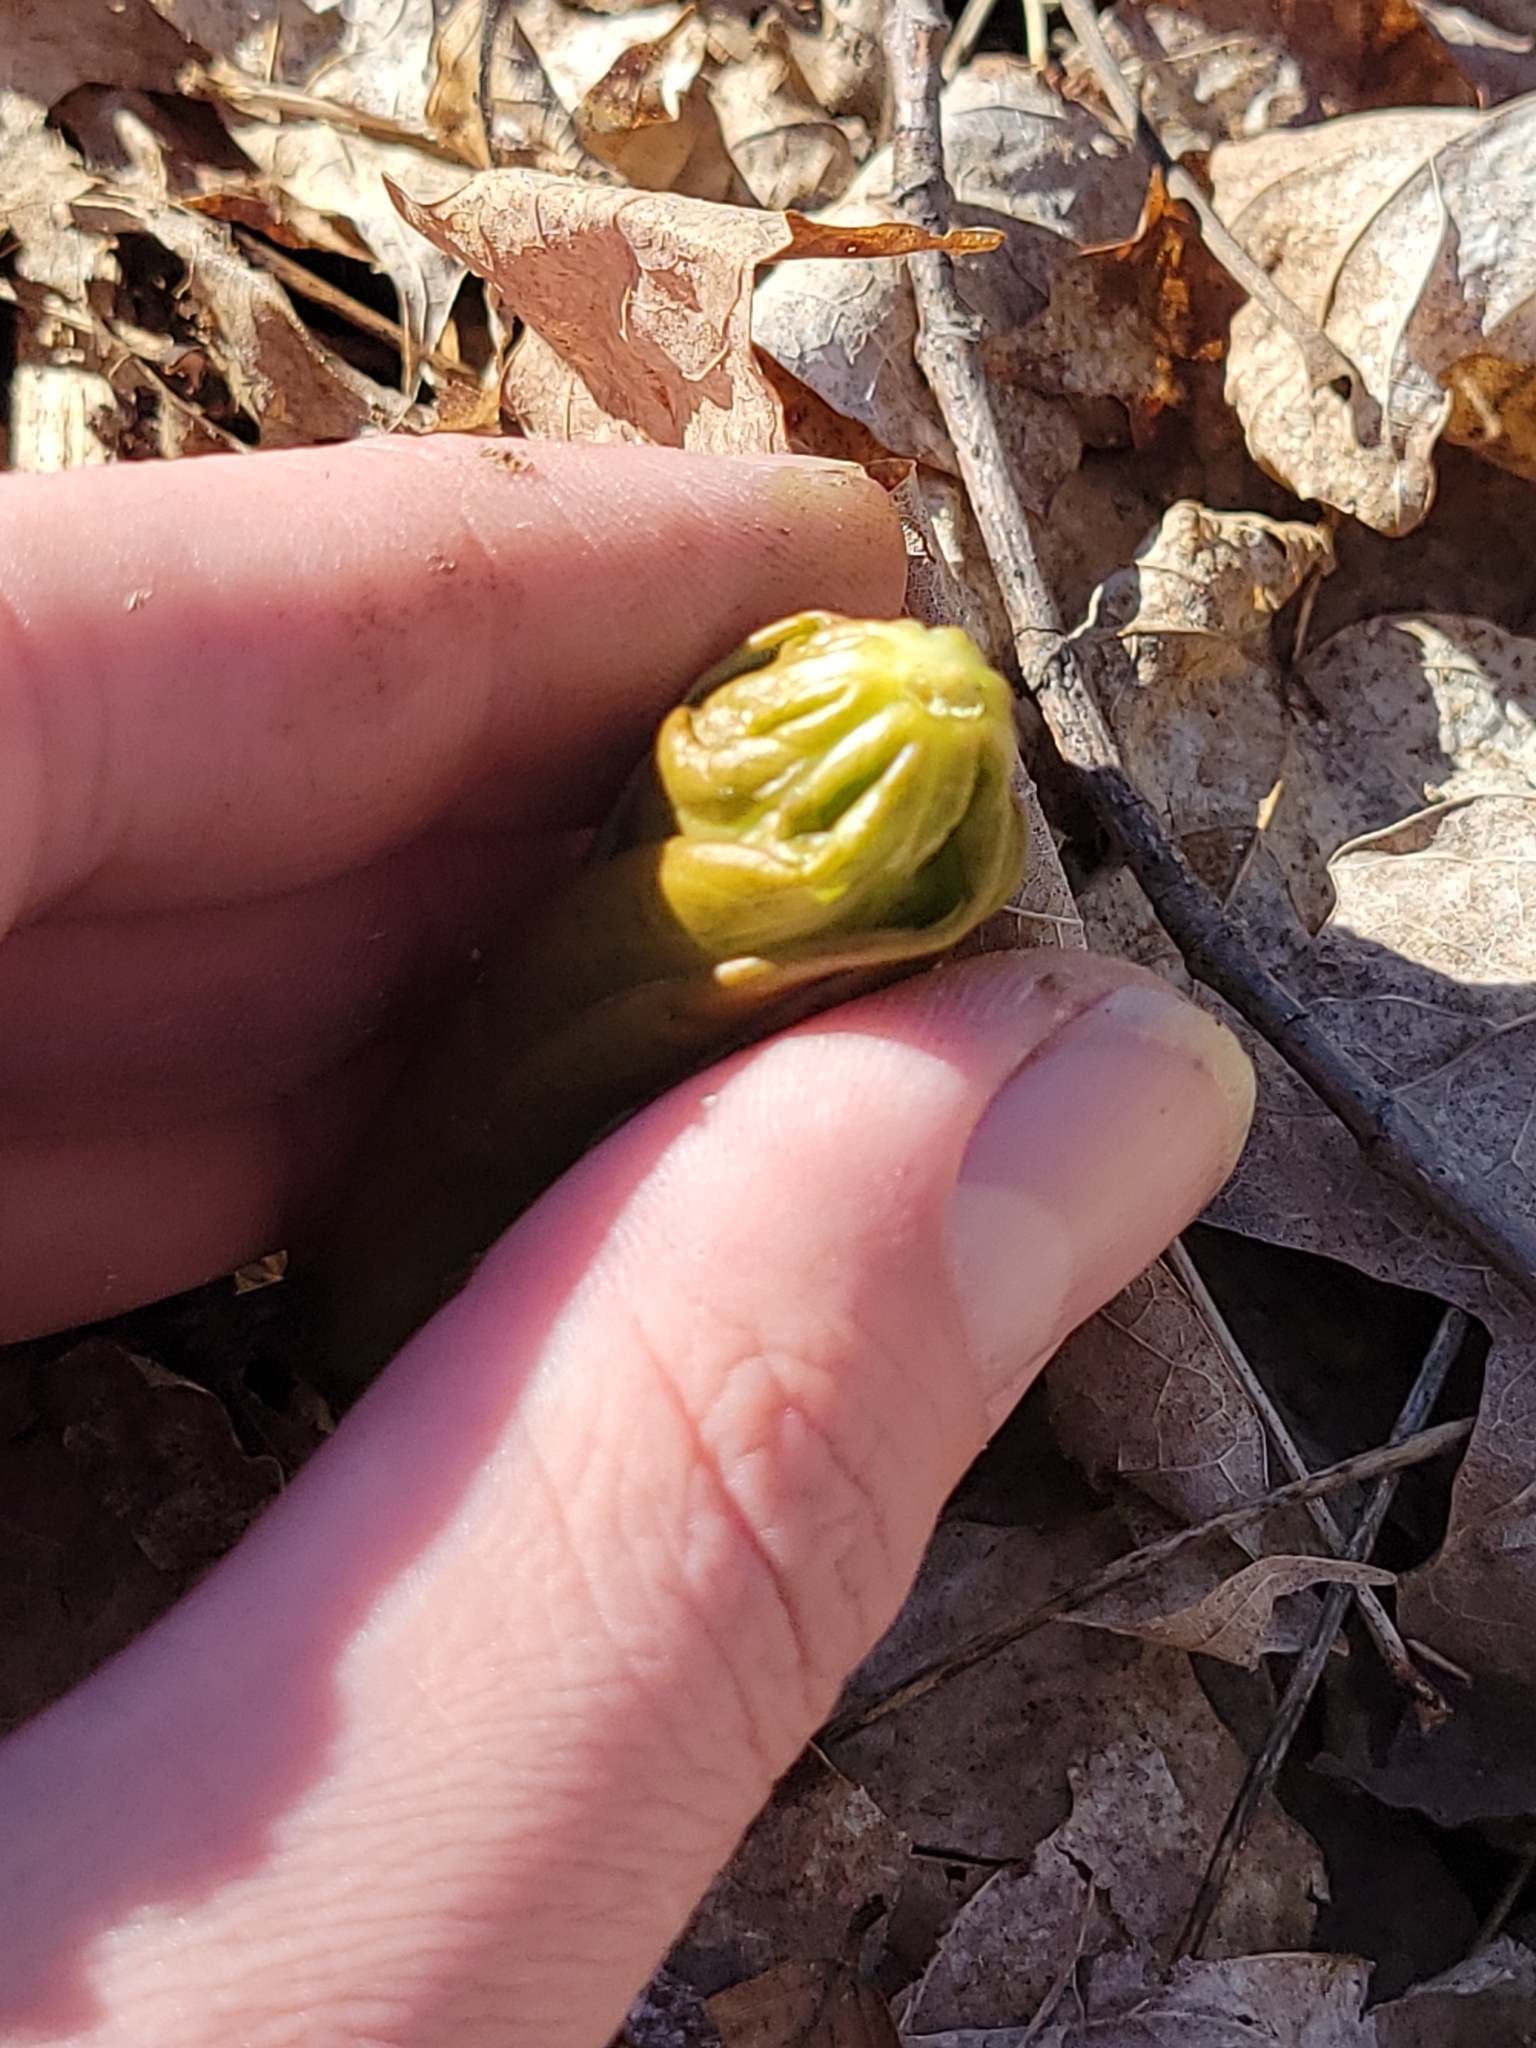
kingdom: Plantae
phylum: Tracheophyta
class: Magnoliopsida
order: Ranunculales
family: Berberidaceae
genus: Podophyllum
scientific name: Podophyllum peltatum
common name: Wild mandrake
